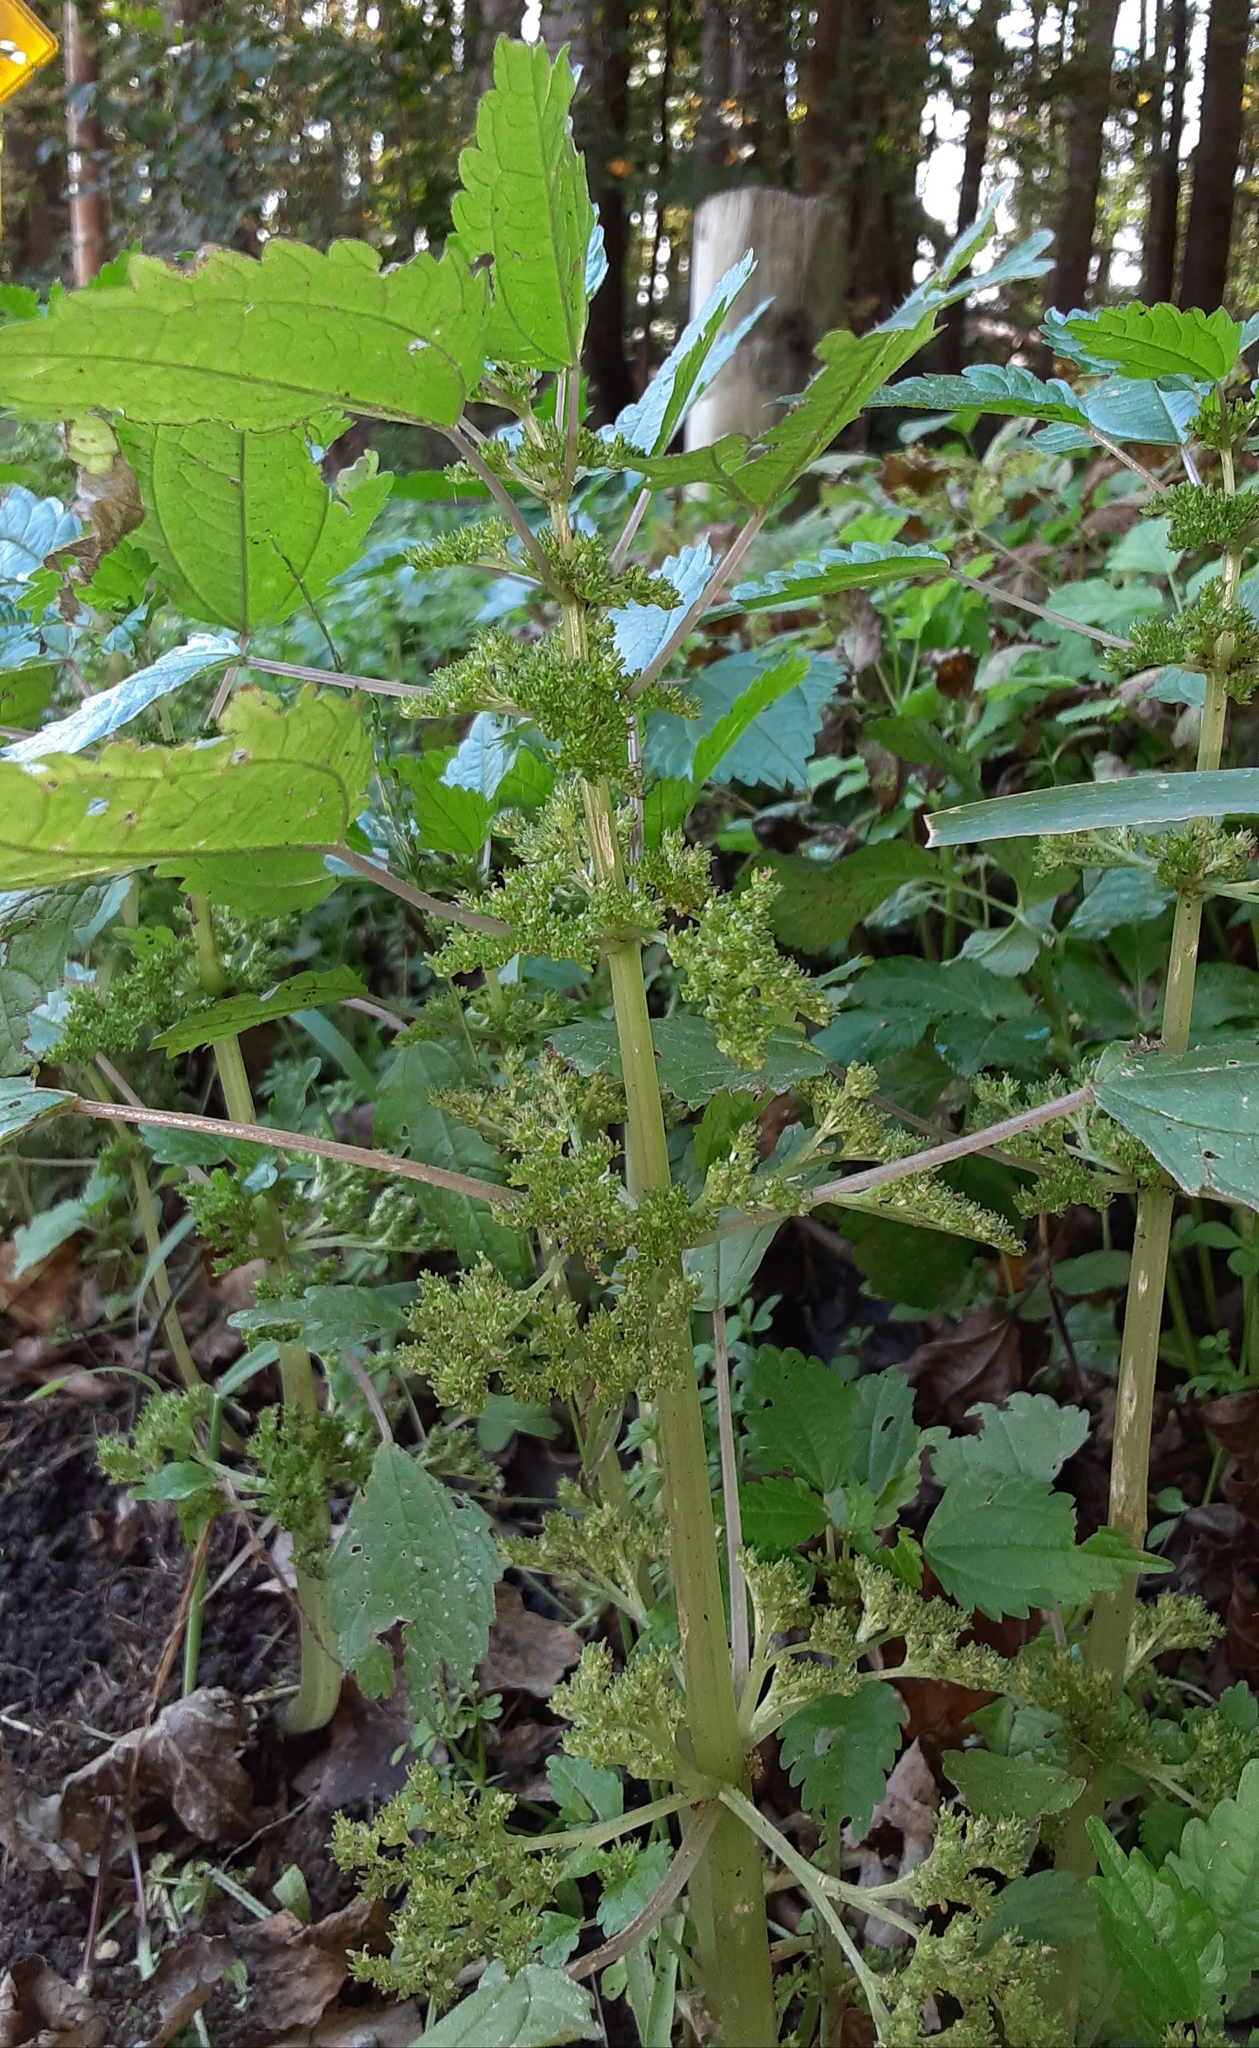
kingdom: Plantae
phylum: Tracheophyta
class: Magnoliopsida
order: Rosales
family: Urticaceae
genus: Pilea
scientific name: Pilea pumila
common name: Clearweed
